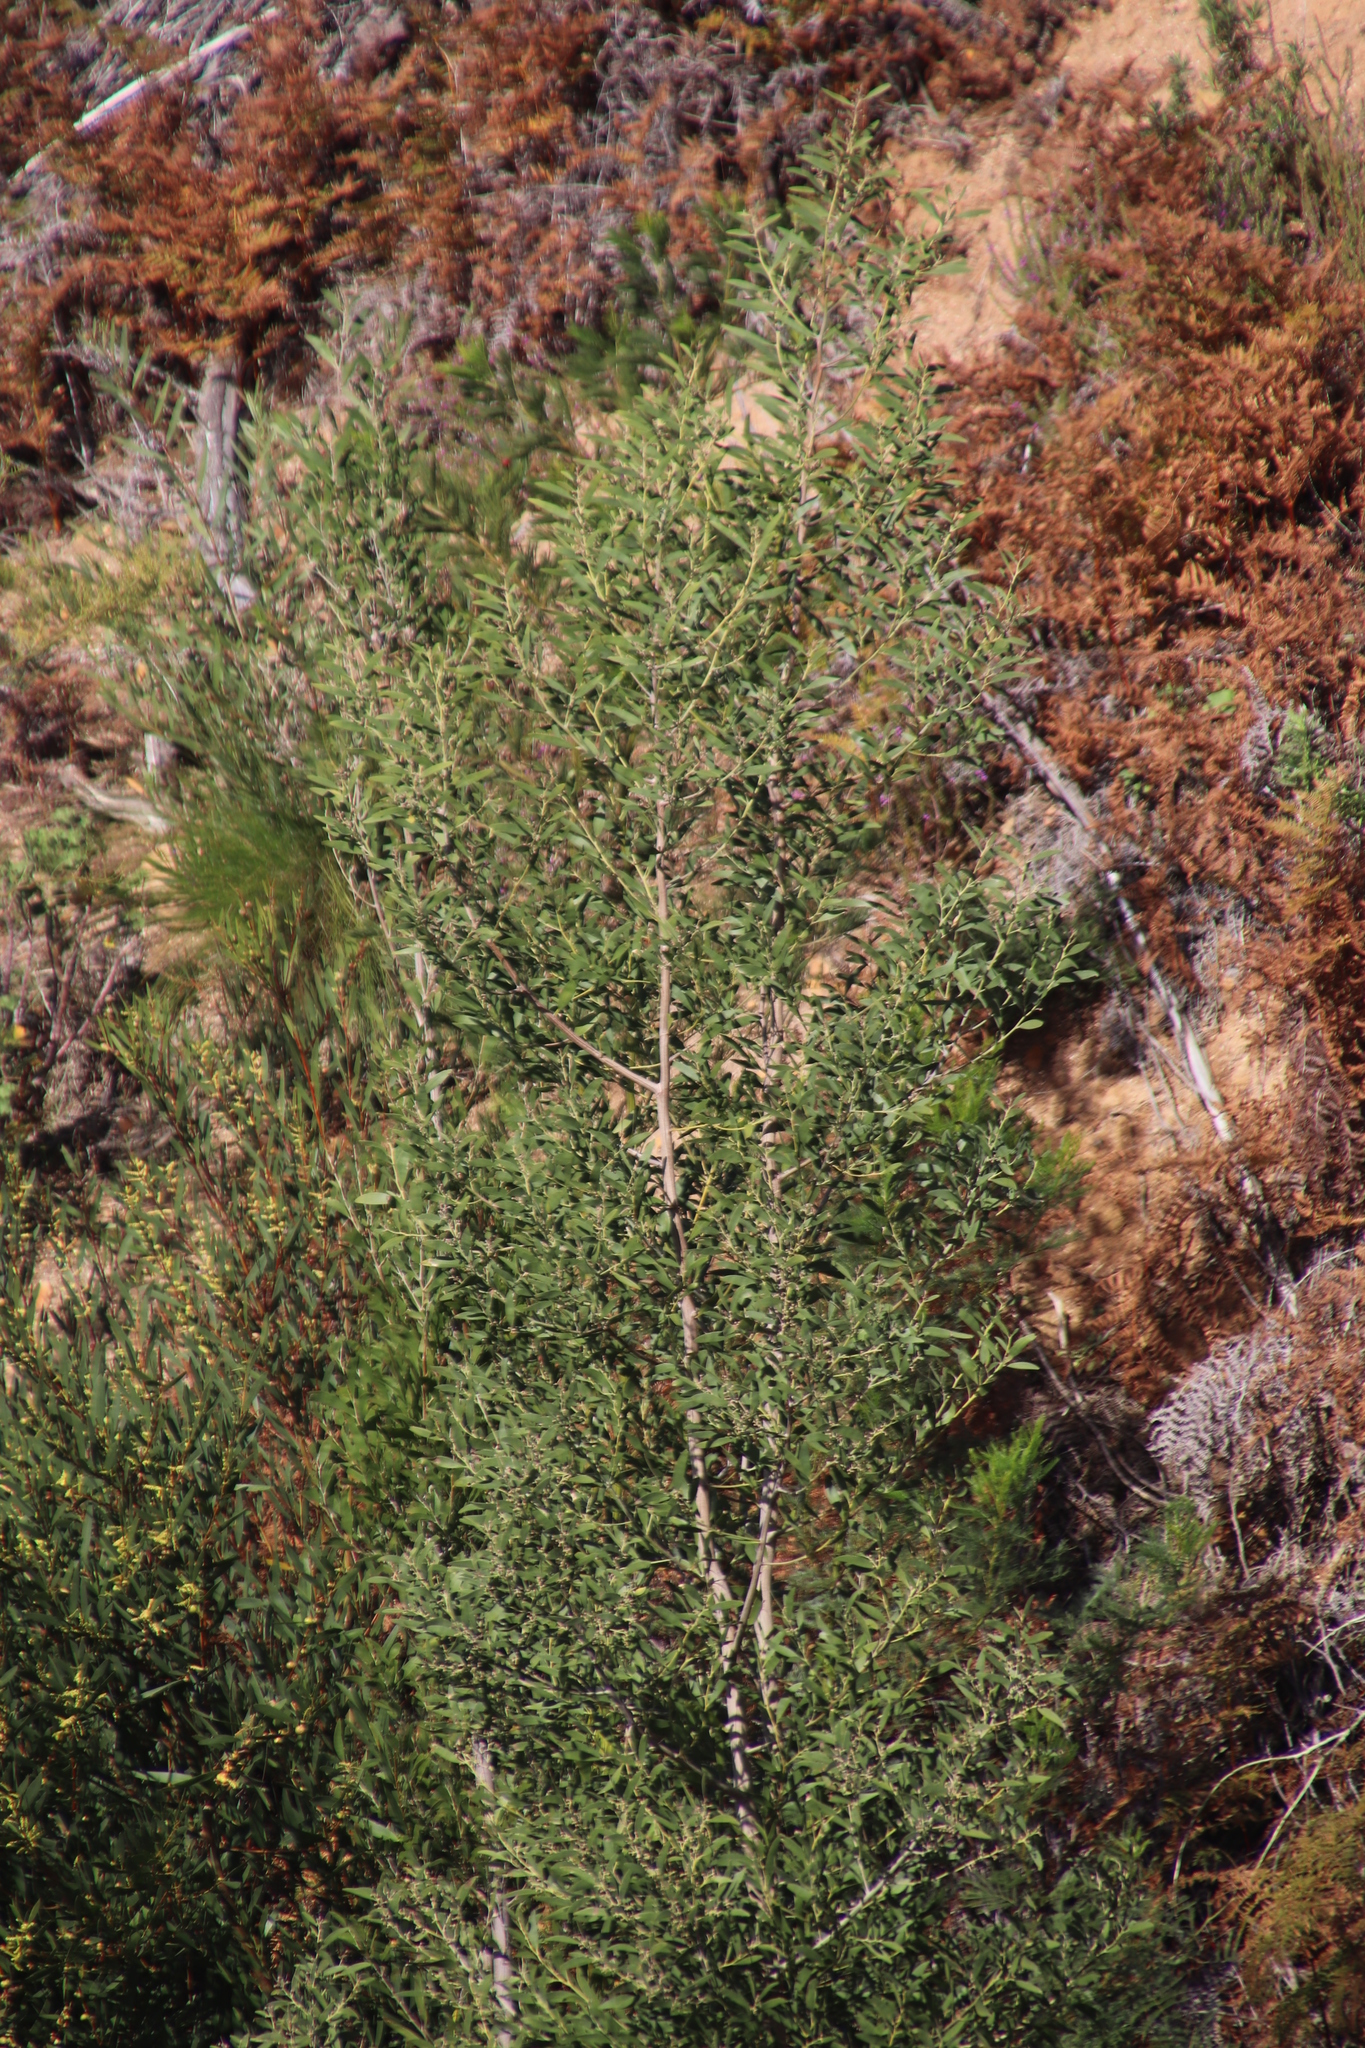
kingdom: Plantae
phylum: Tracheophyta
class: Magnoliopsida
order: Fabales
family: Fabaceae
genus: Acacia
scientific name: Acacia melanoxylon
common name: Blackwood
